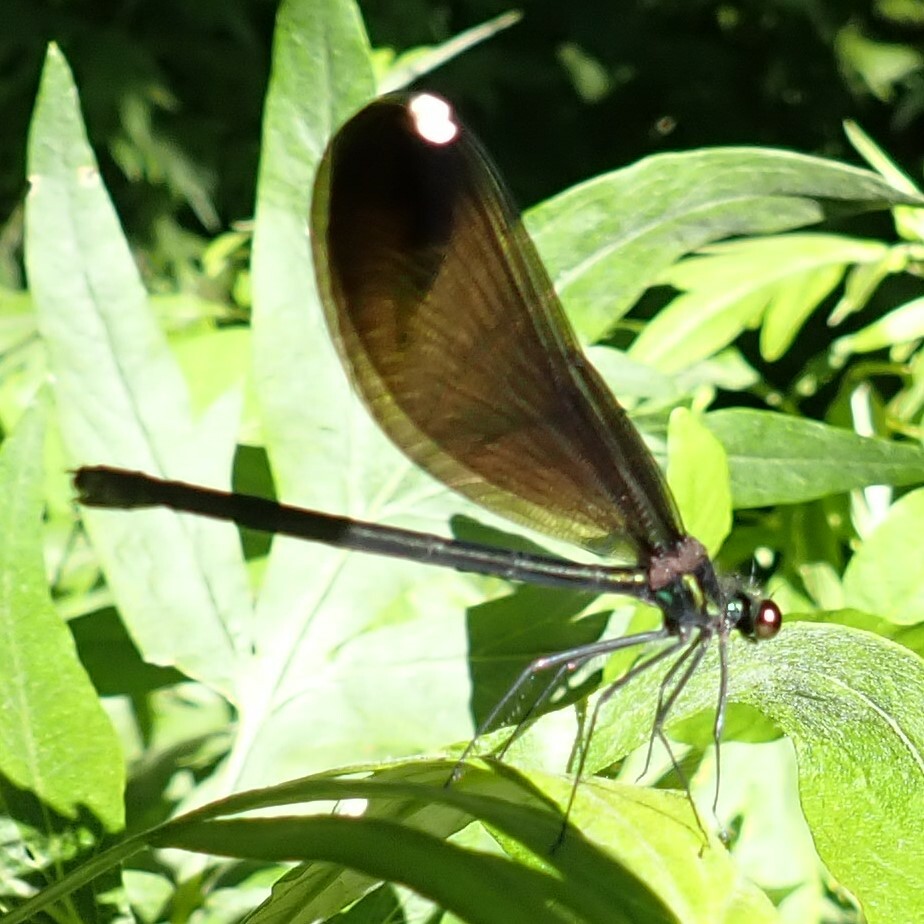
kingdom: Animalia
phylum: Arthropoda
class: Insecta
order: Odonata
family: Calopterygidae
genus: Calopteryx
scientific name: Calopteryx maculata
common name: Ebony jewelwing
